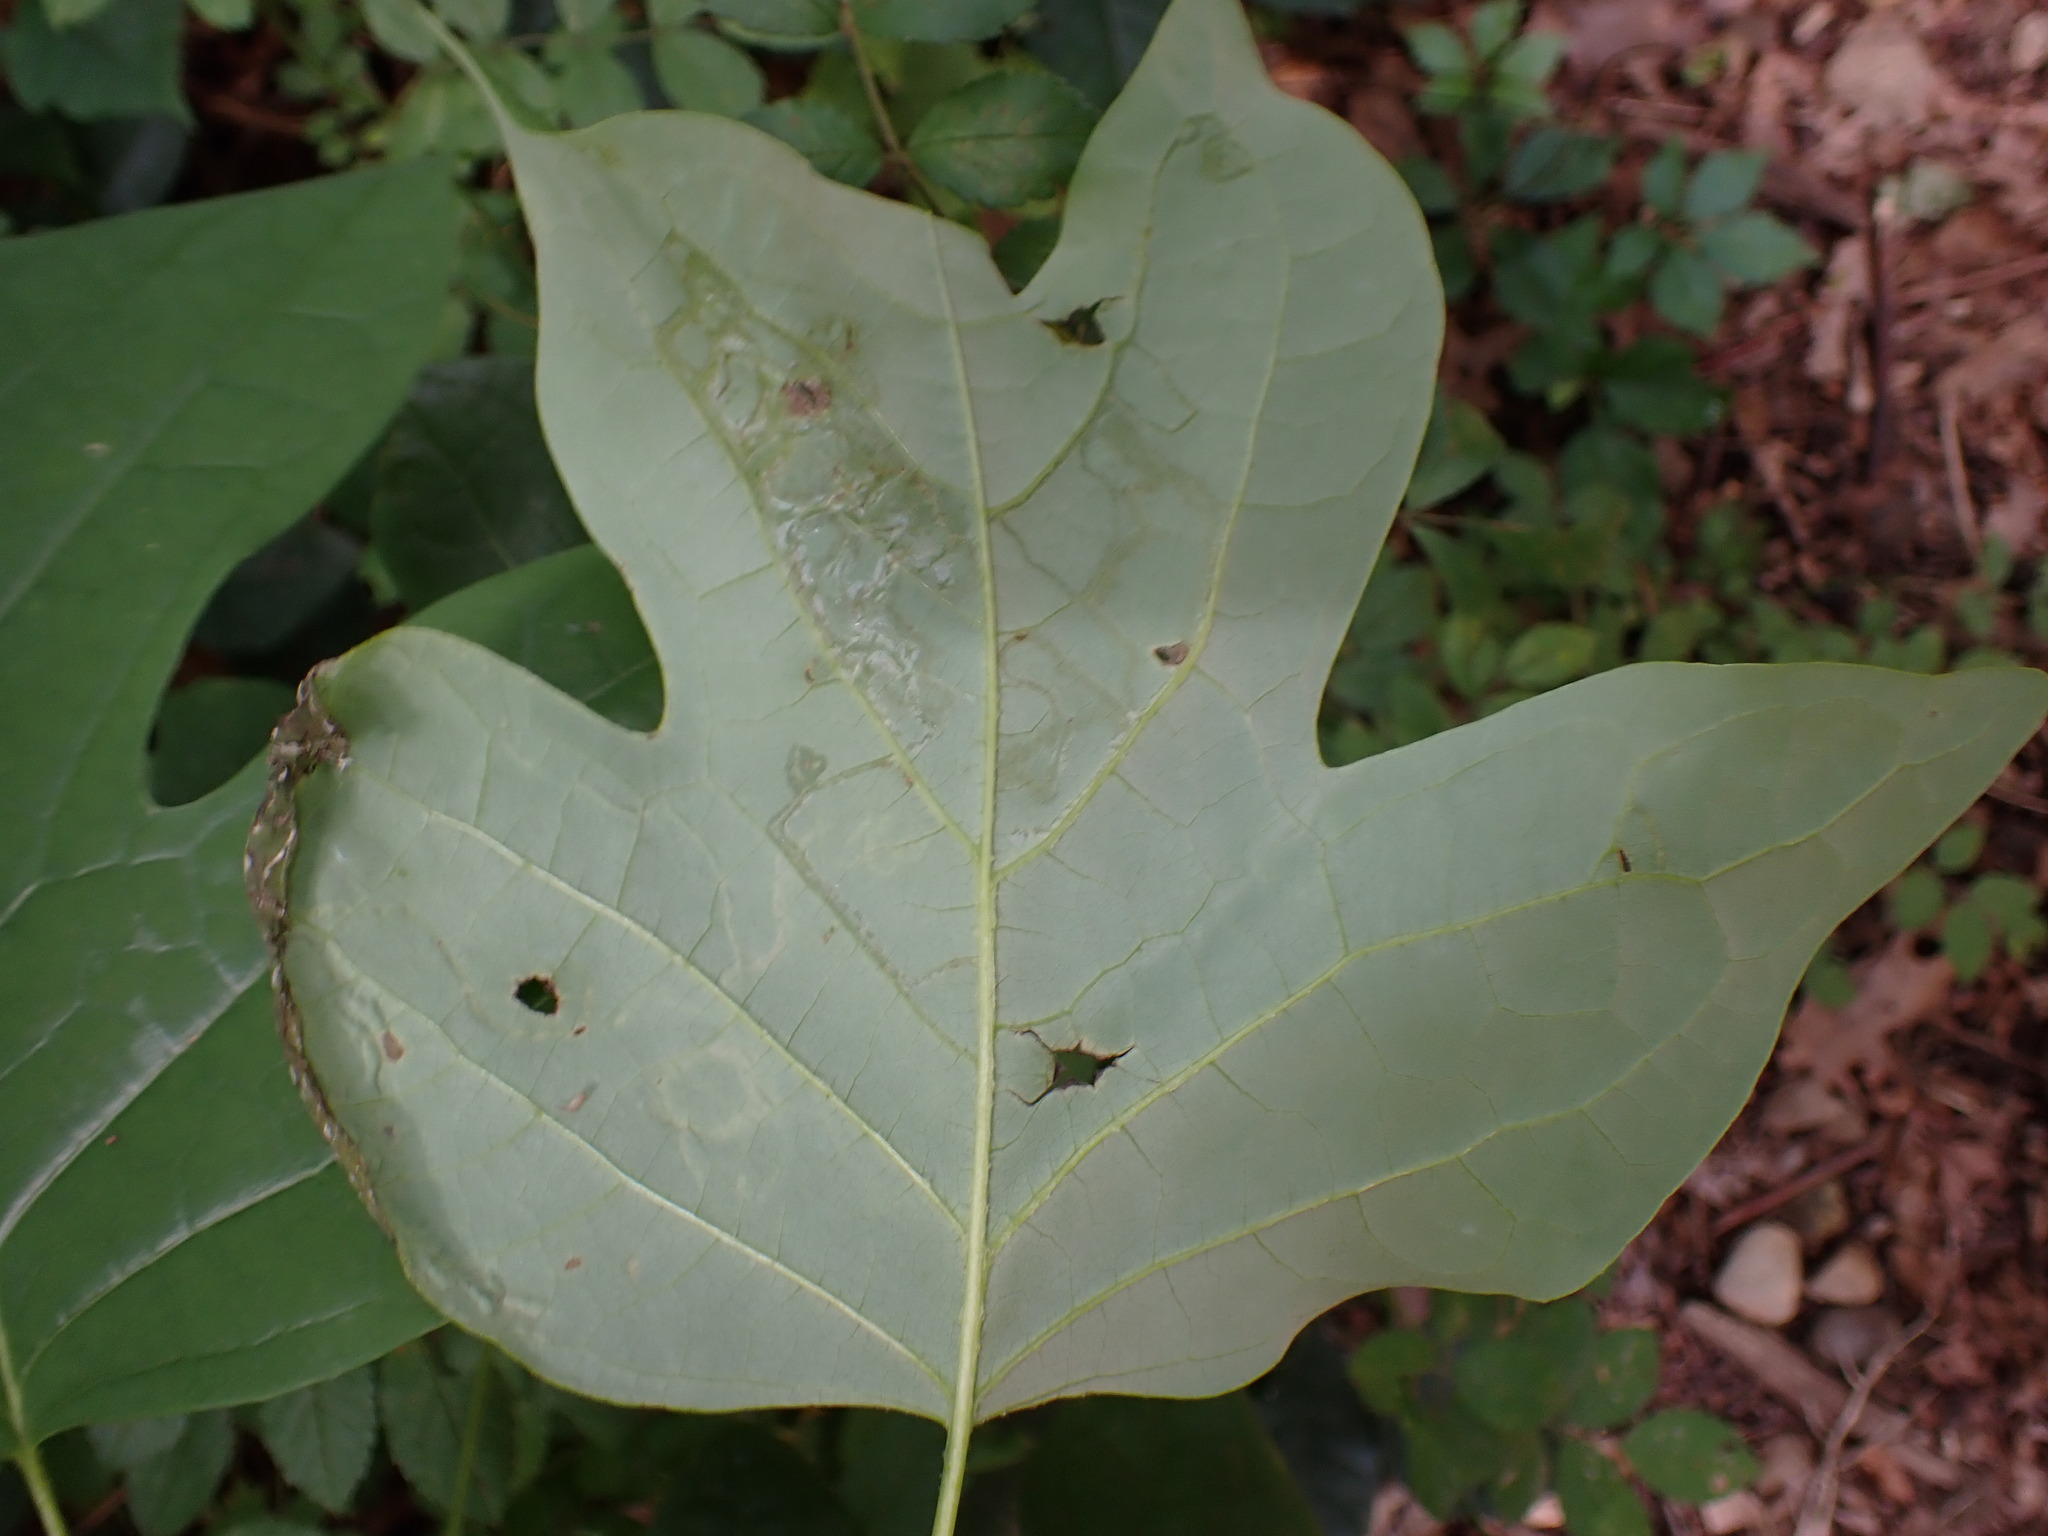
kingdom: Animalia
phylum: Arthropoda
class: Insecta
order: Lepidoptera
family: Gracillariidae
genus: Phyllocnistis
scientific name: Phyllocnistis liriodendronella
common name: Tulip tree leaf miner
